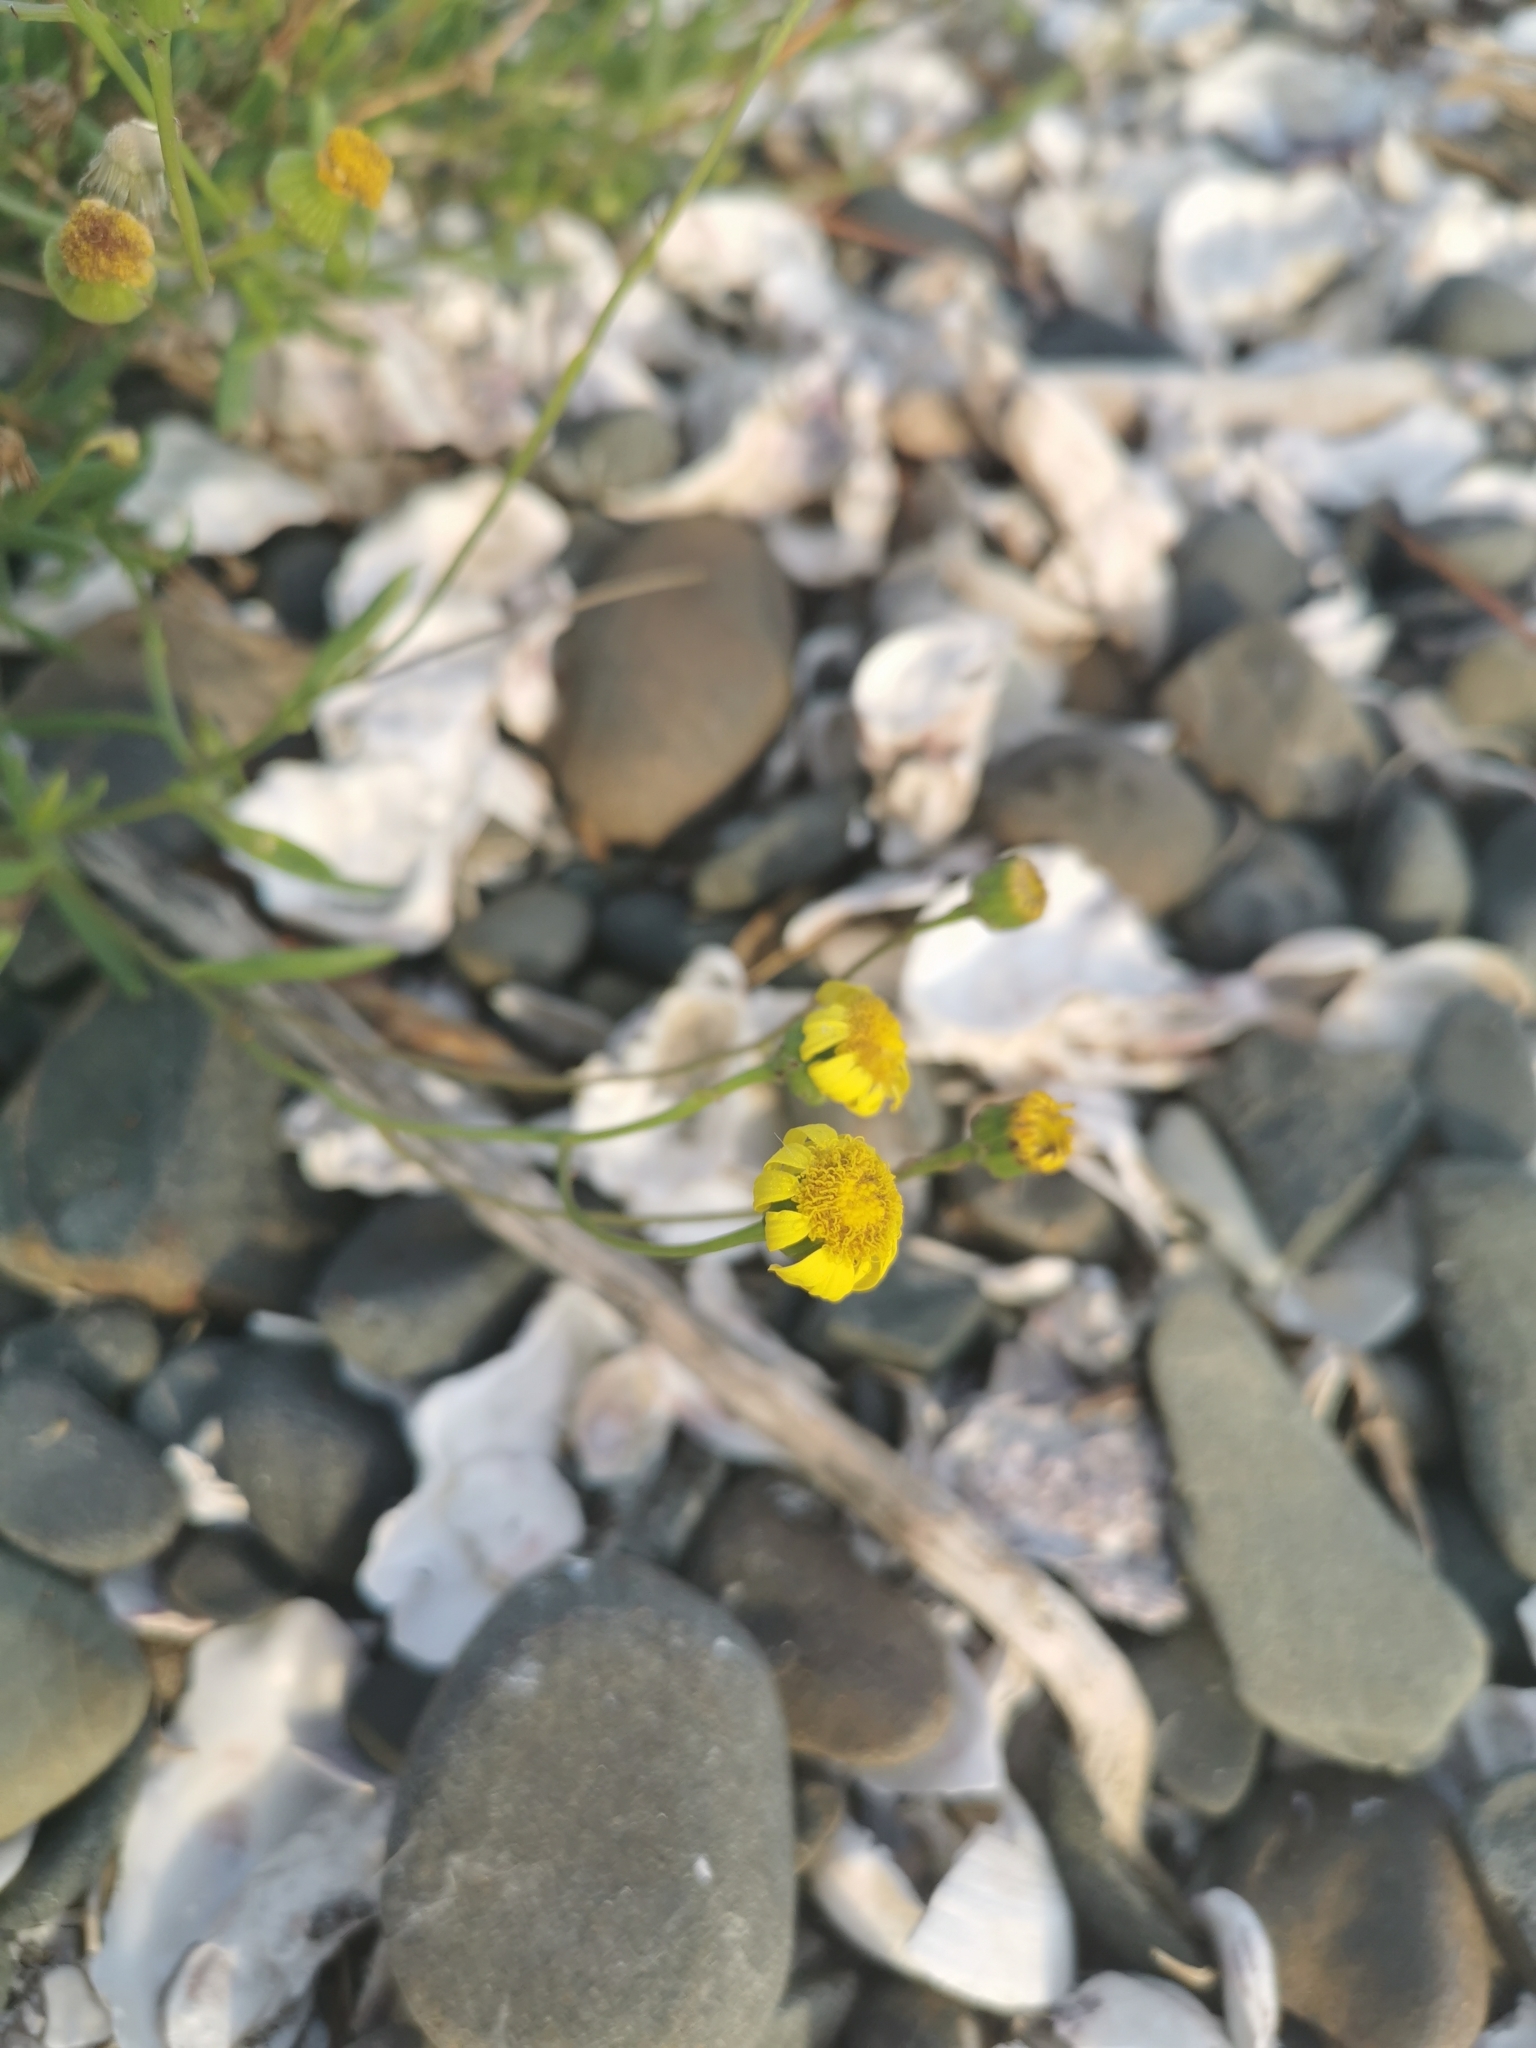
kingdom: Plantae
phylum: Tracheophyta
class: Magnoliopsida
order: Asterales
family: Asteraceae
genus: Senecio
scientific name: Senecio skirrhodon
